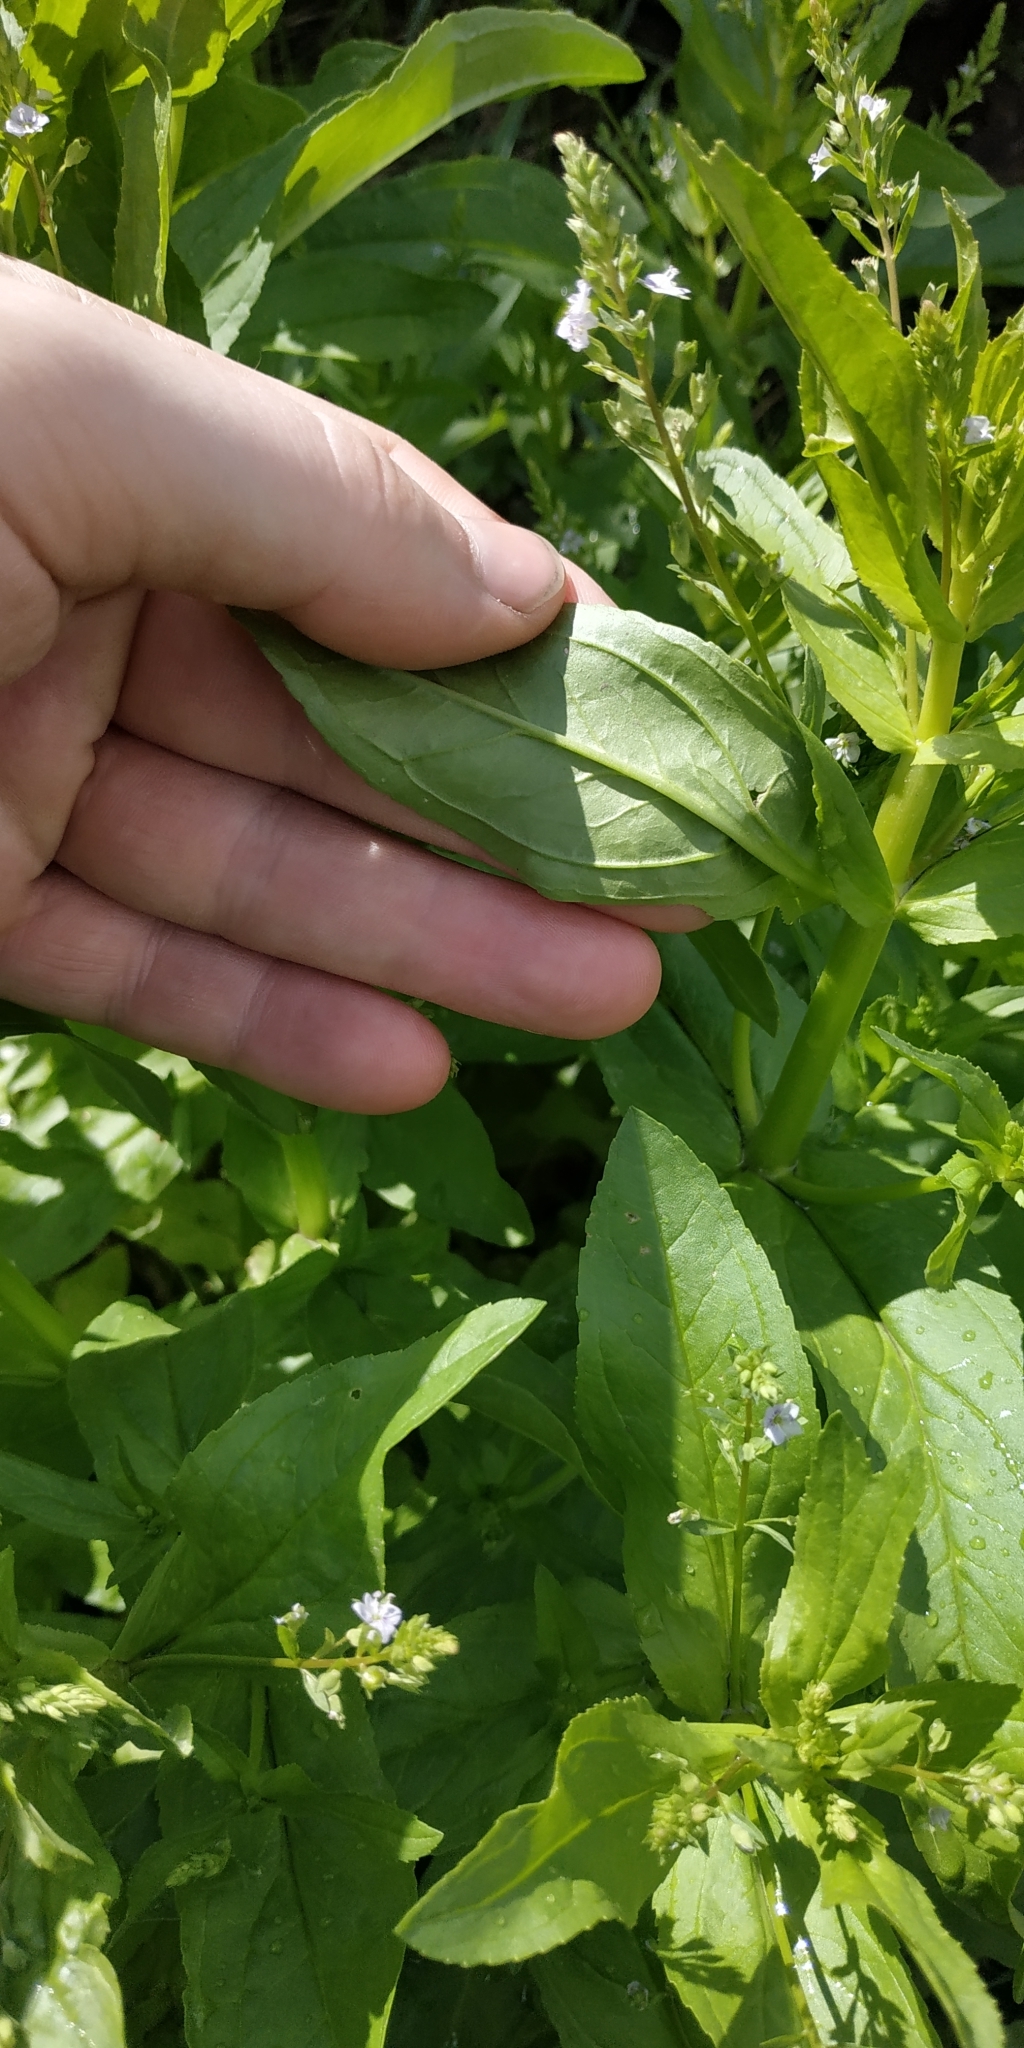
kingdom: Plantae
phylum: Tracheophyta
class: Magnoliopsida
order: Lamiales
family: Plantaginaceae
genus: Veronica
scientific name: Veronica anagallis-aquatica
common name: Water speedwell
